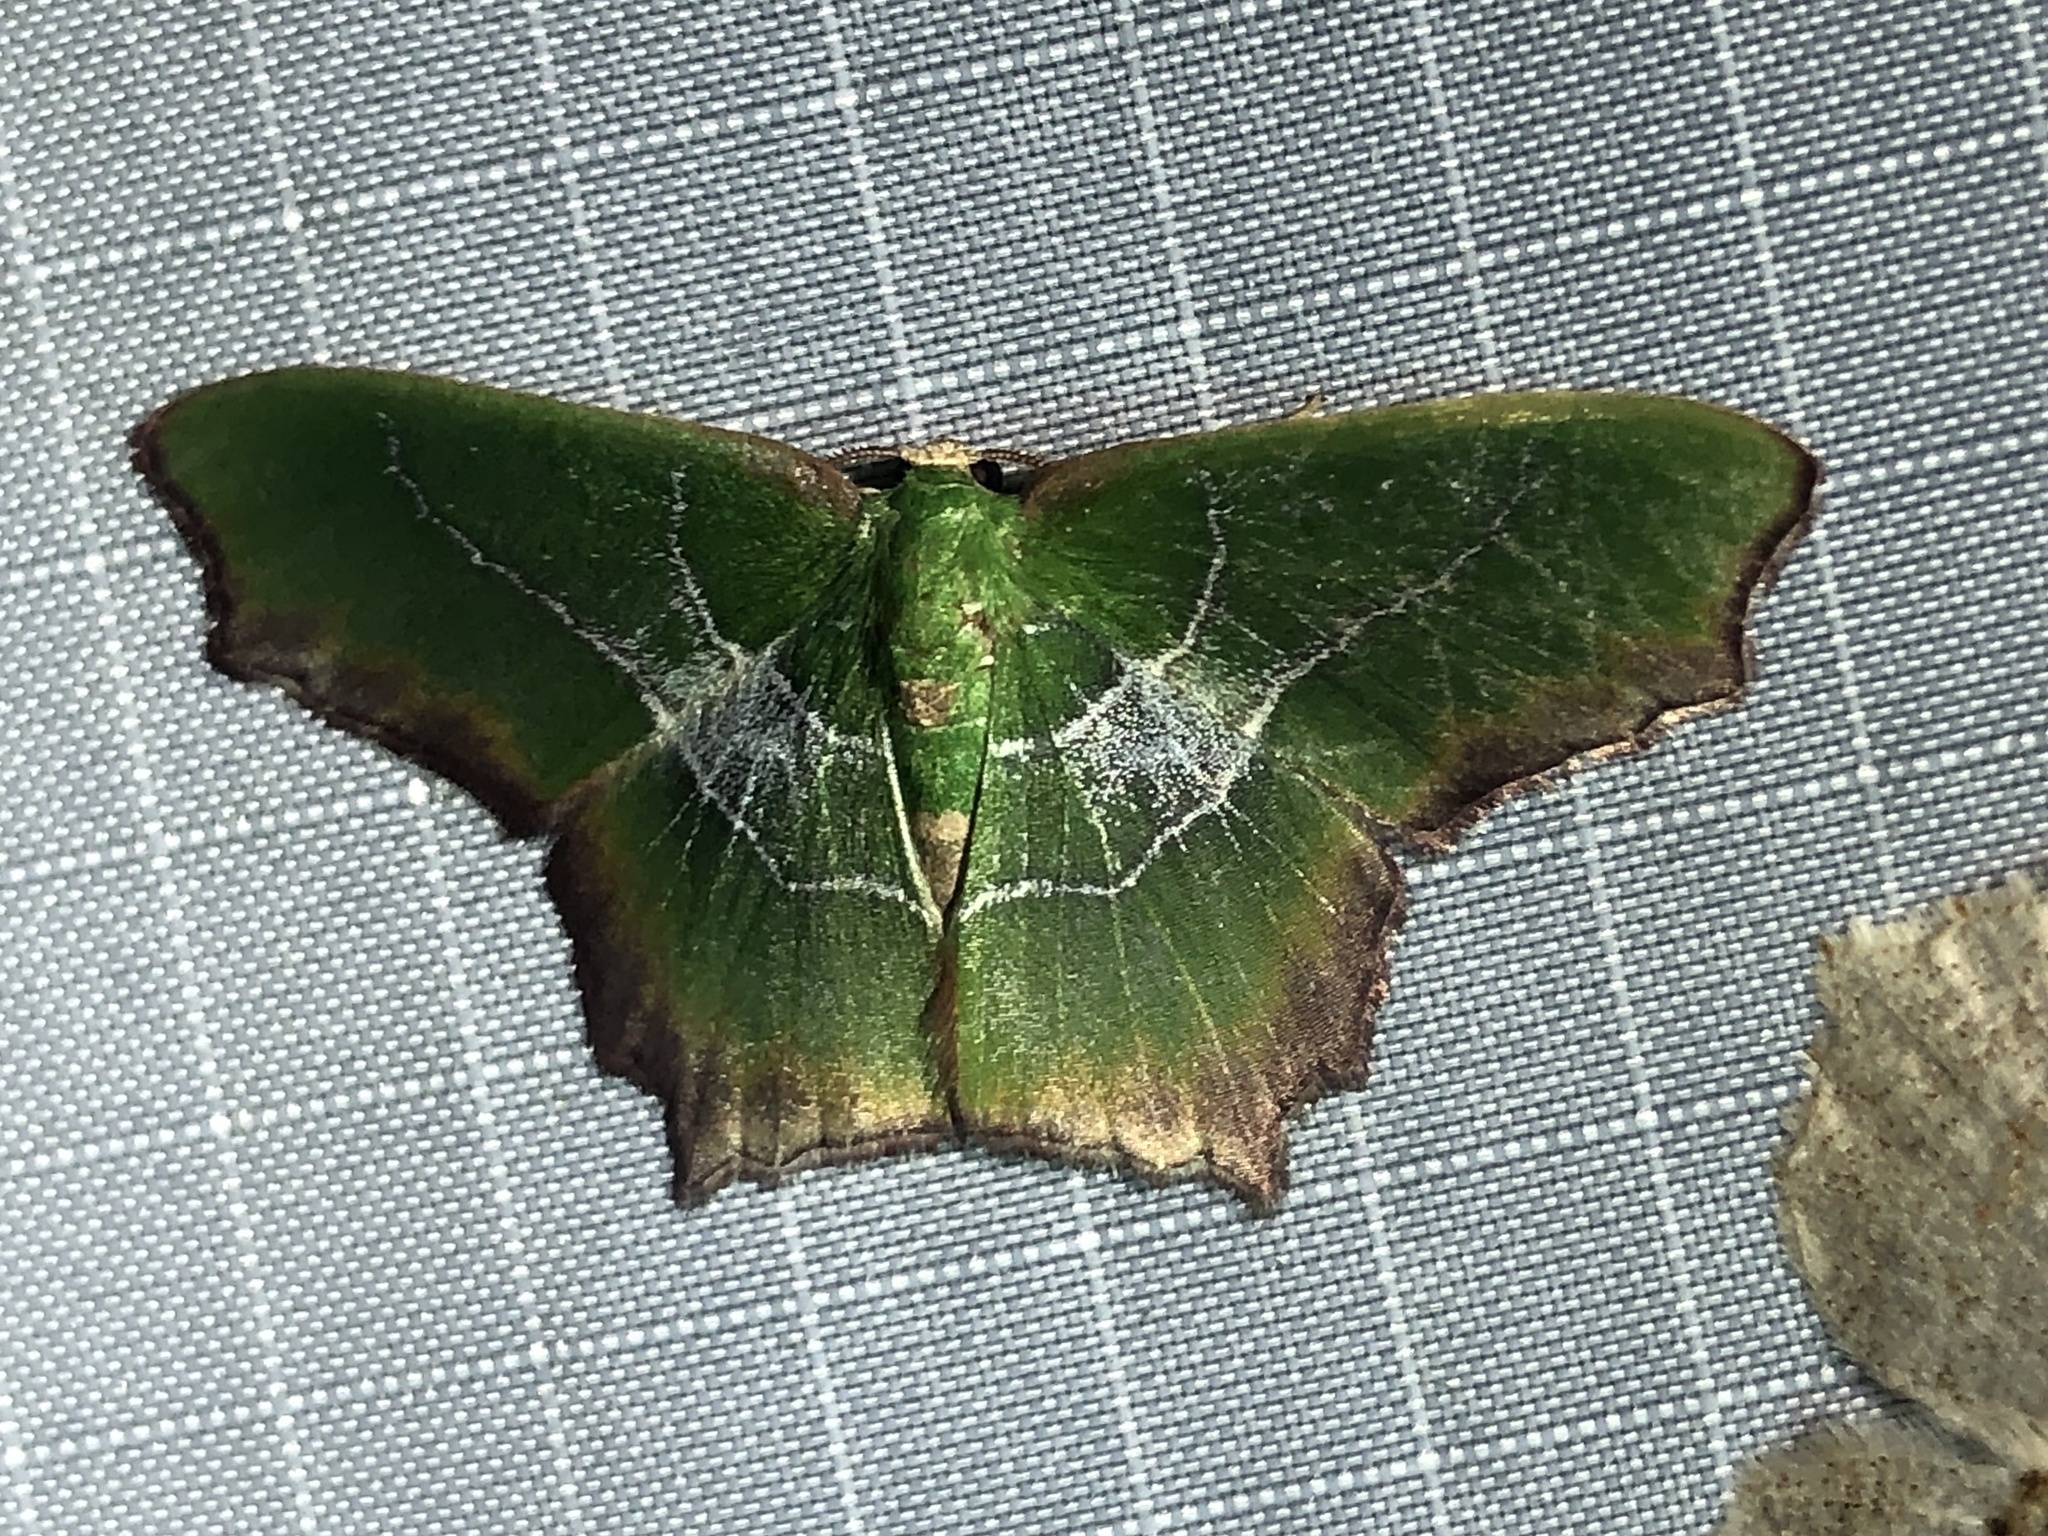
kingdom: Animalia
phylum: Arthropoda
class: Insecta
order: Lepidoptera
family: Geometridae
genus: Poecilochlora
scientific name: Poecilochlora
